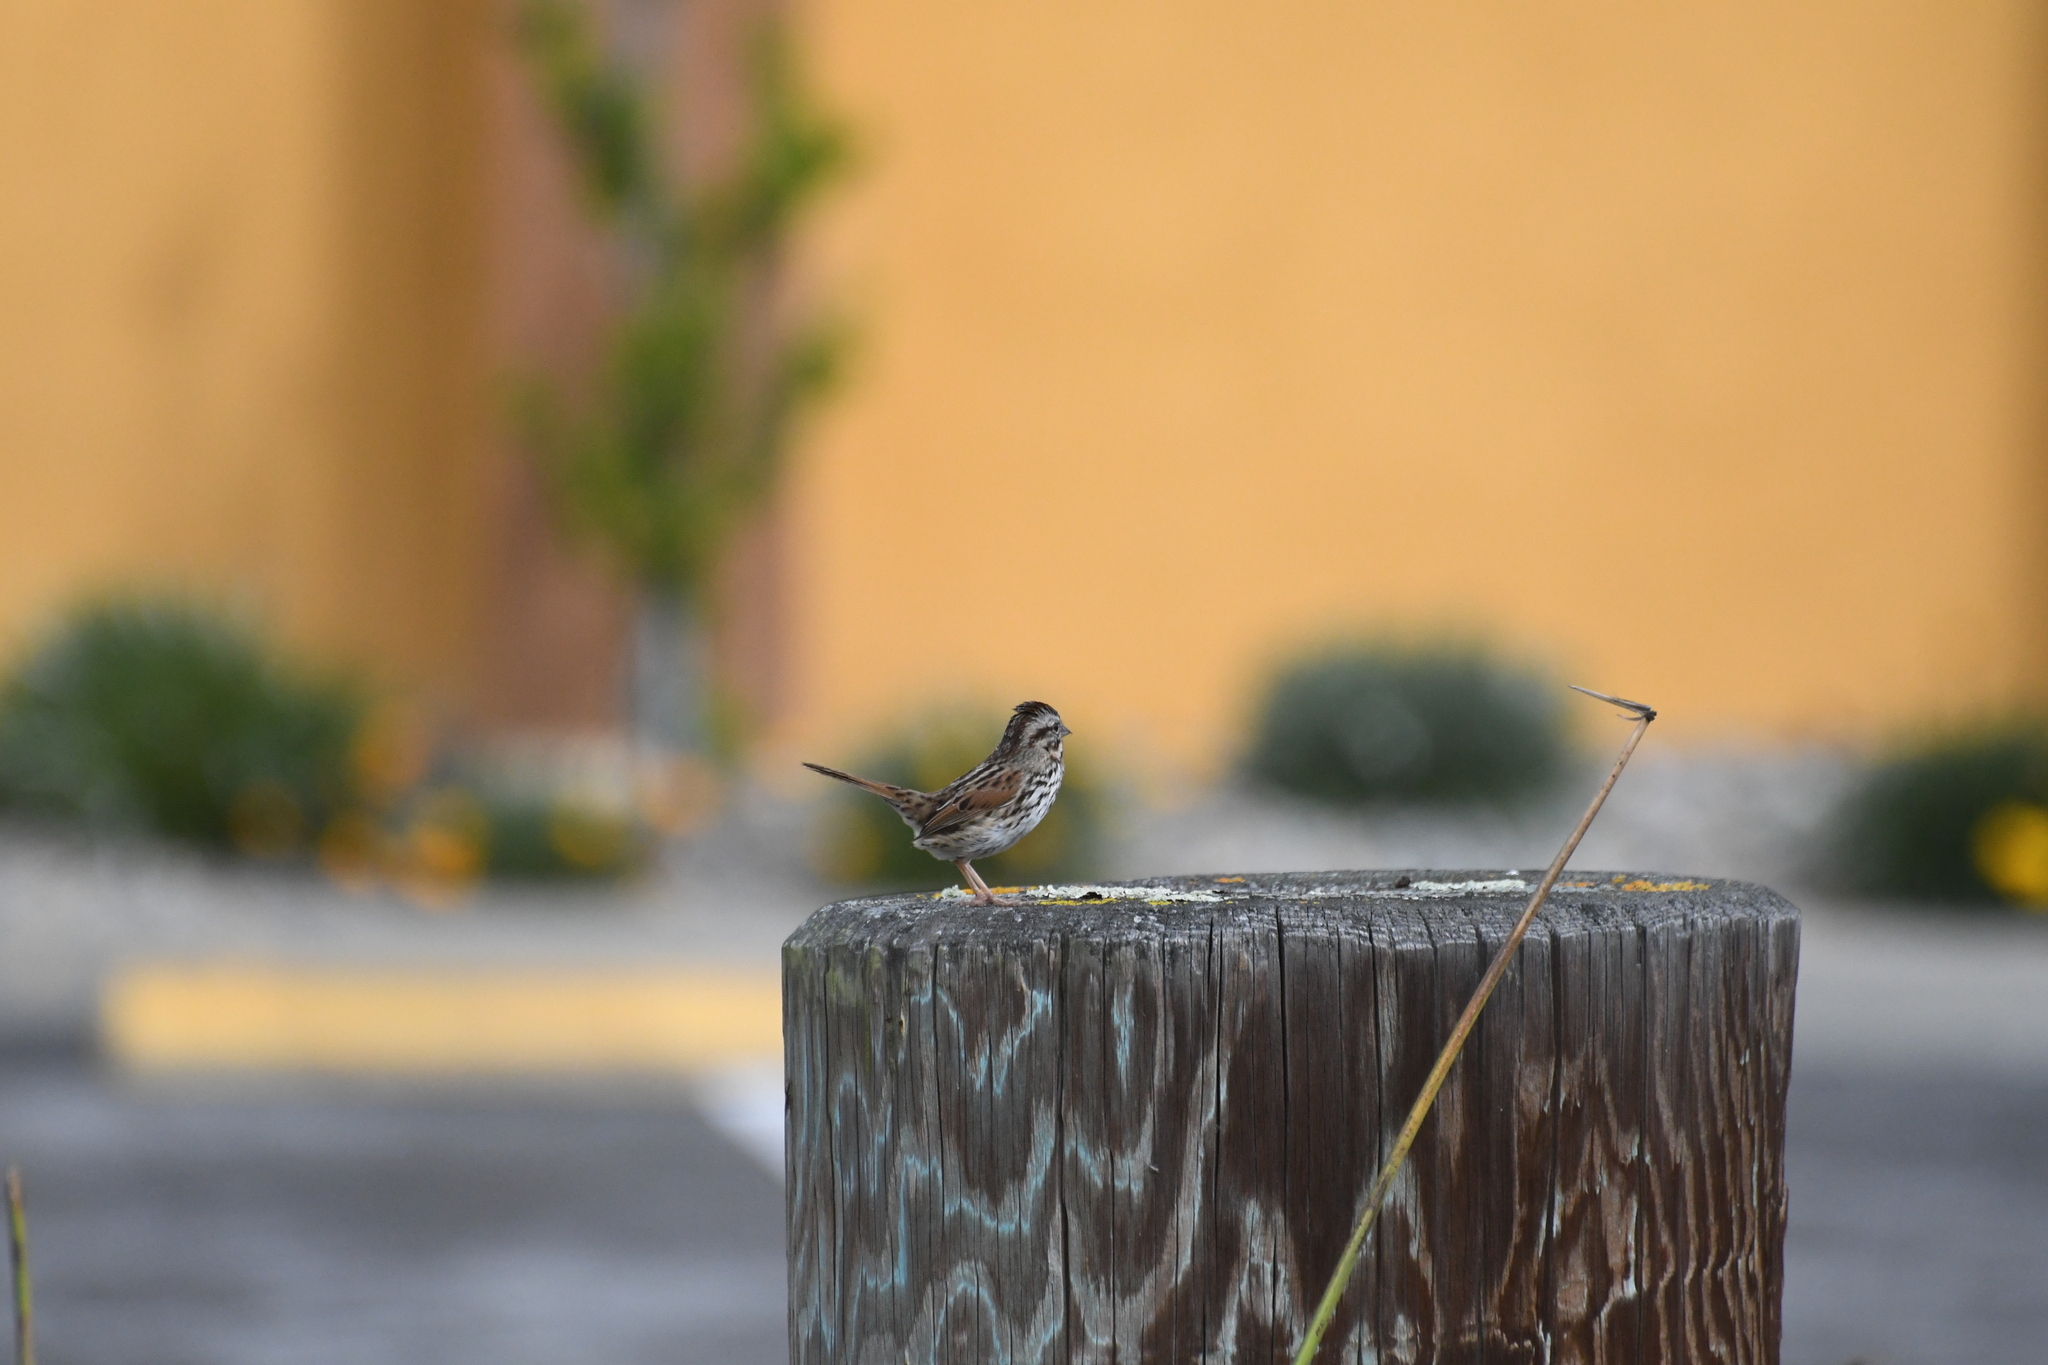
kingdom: Animalia
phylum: Chordata
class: Aves
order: Passeriformes
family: Passerellidae
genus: Melospiza
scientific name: Melospiza melodia
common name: Song sparrow
